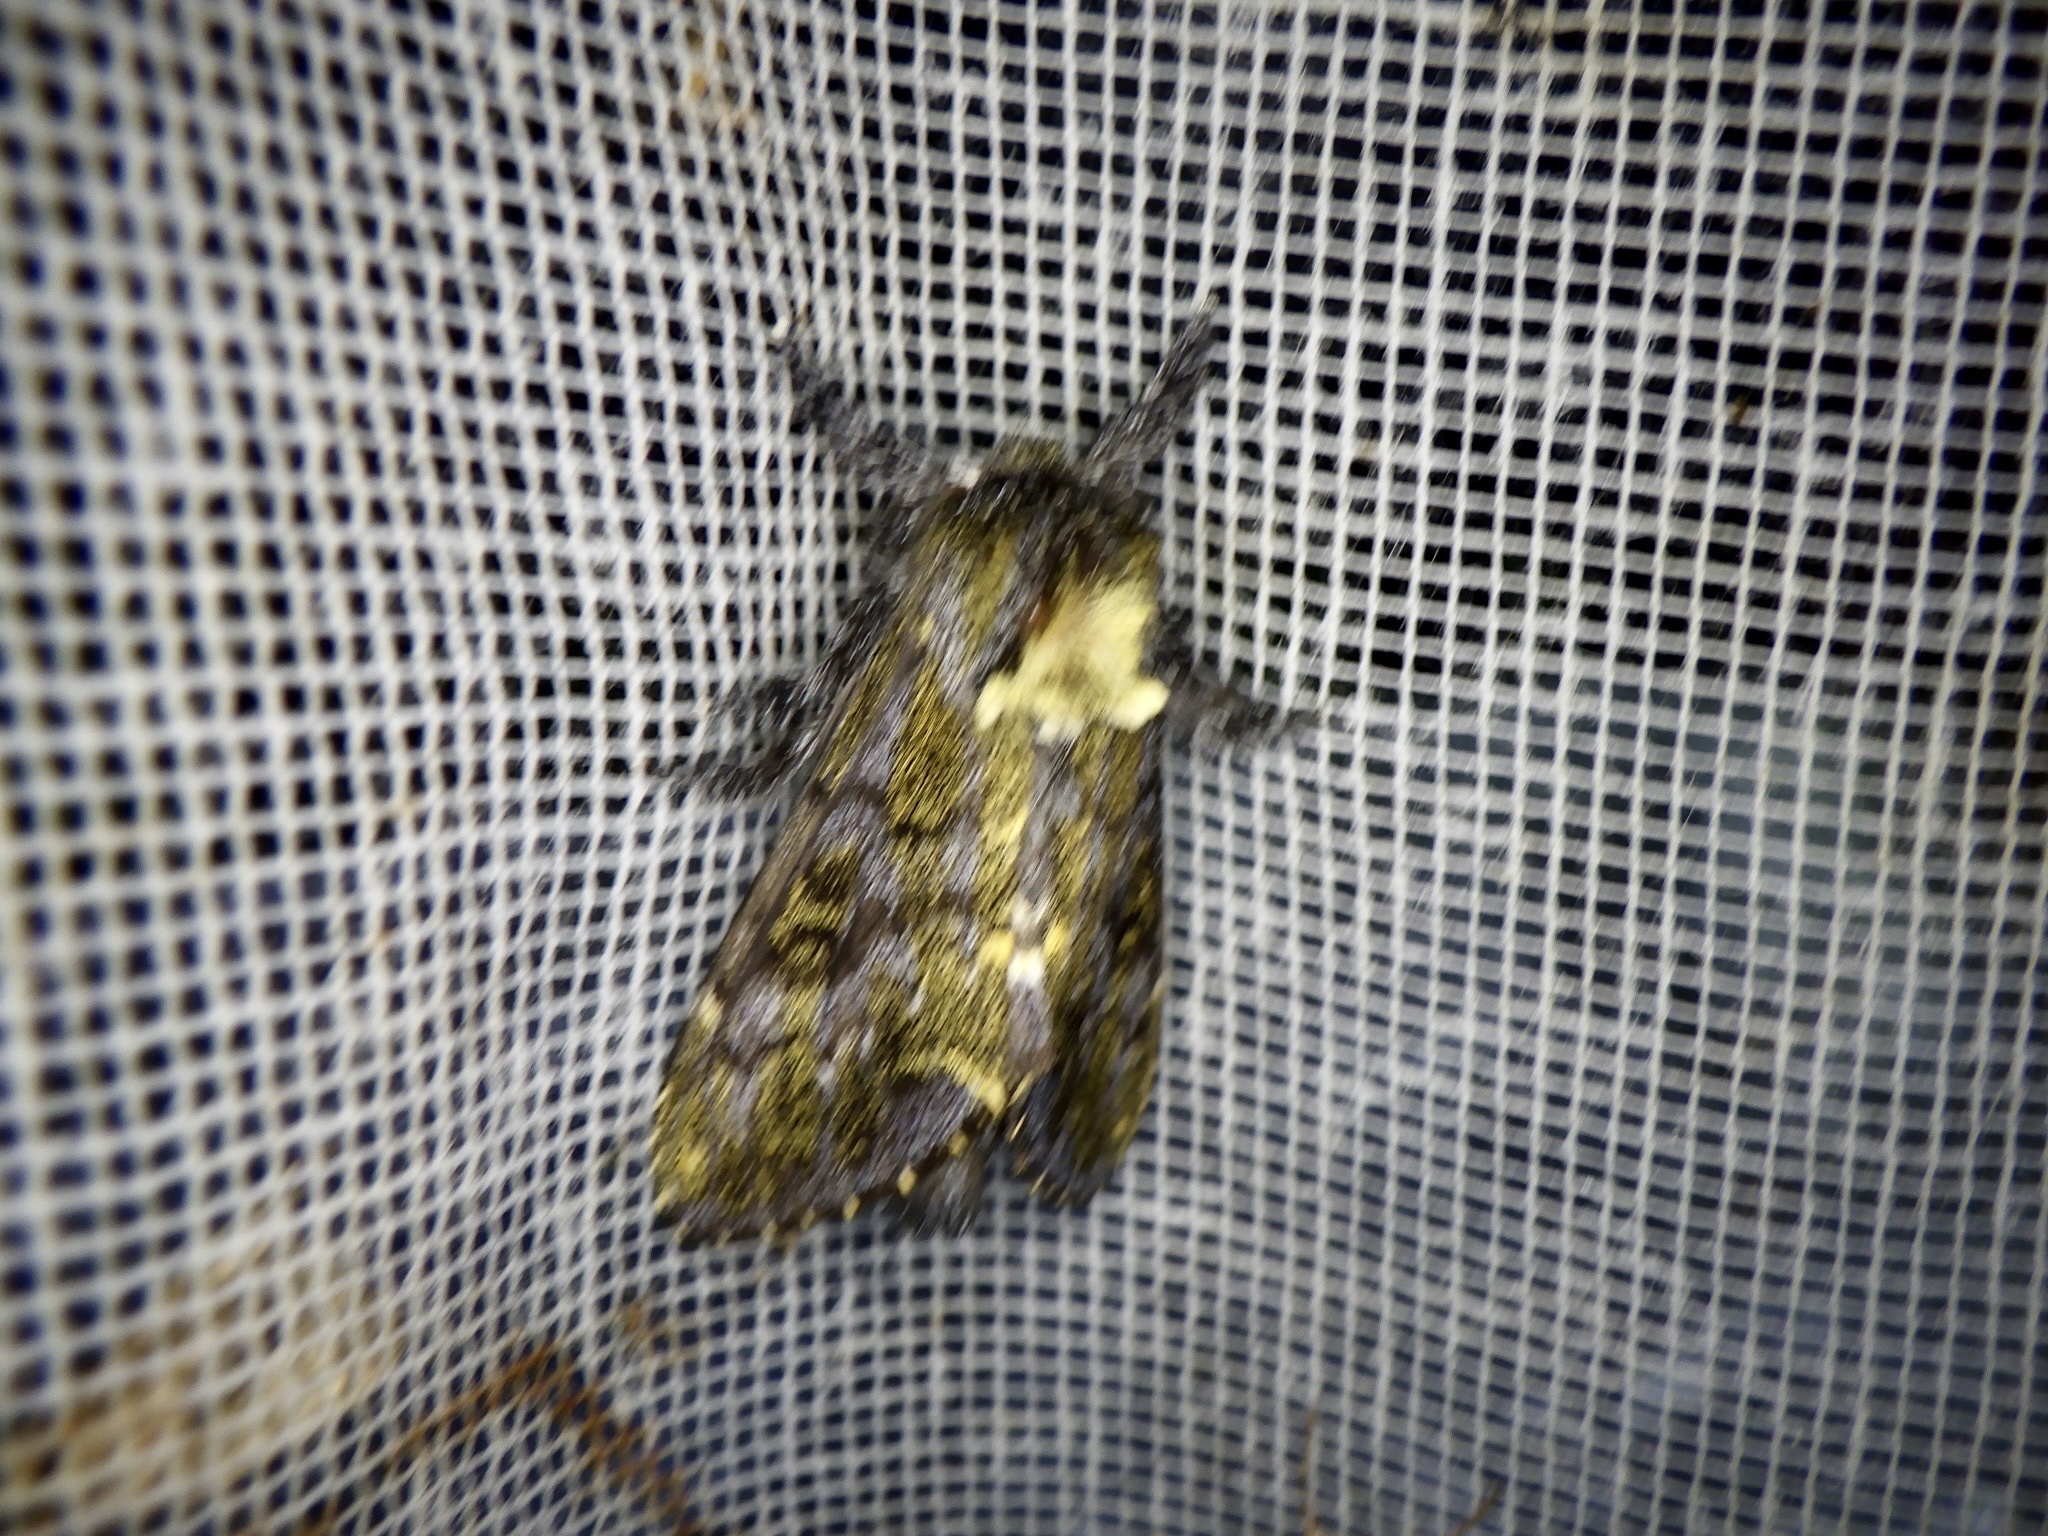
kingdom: Animalia
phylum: Arthropoda
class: Insecta
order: Lepidoptera
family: Notodontidae
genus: Zaranga
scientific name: Zaranga permagna
